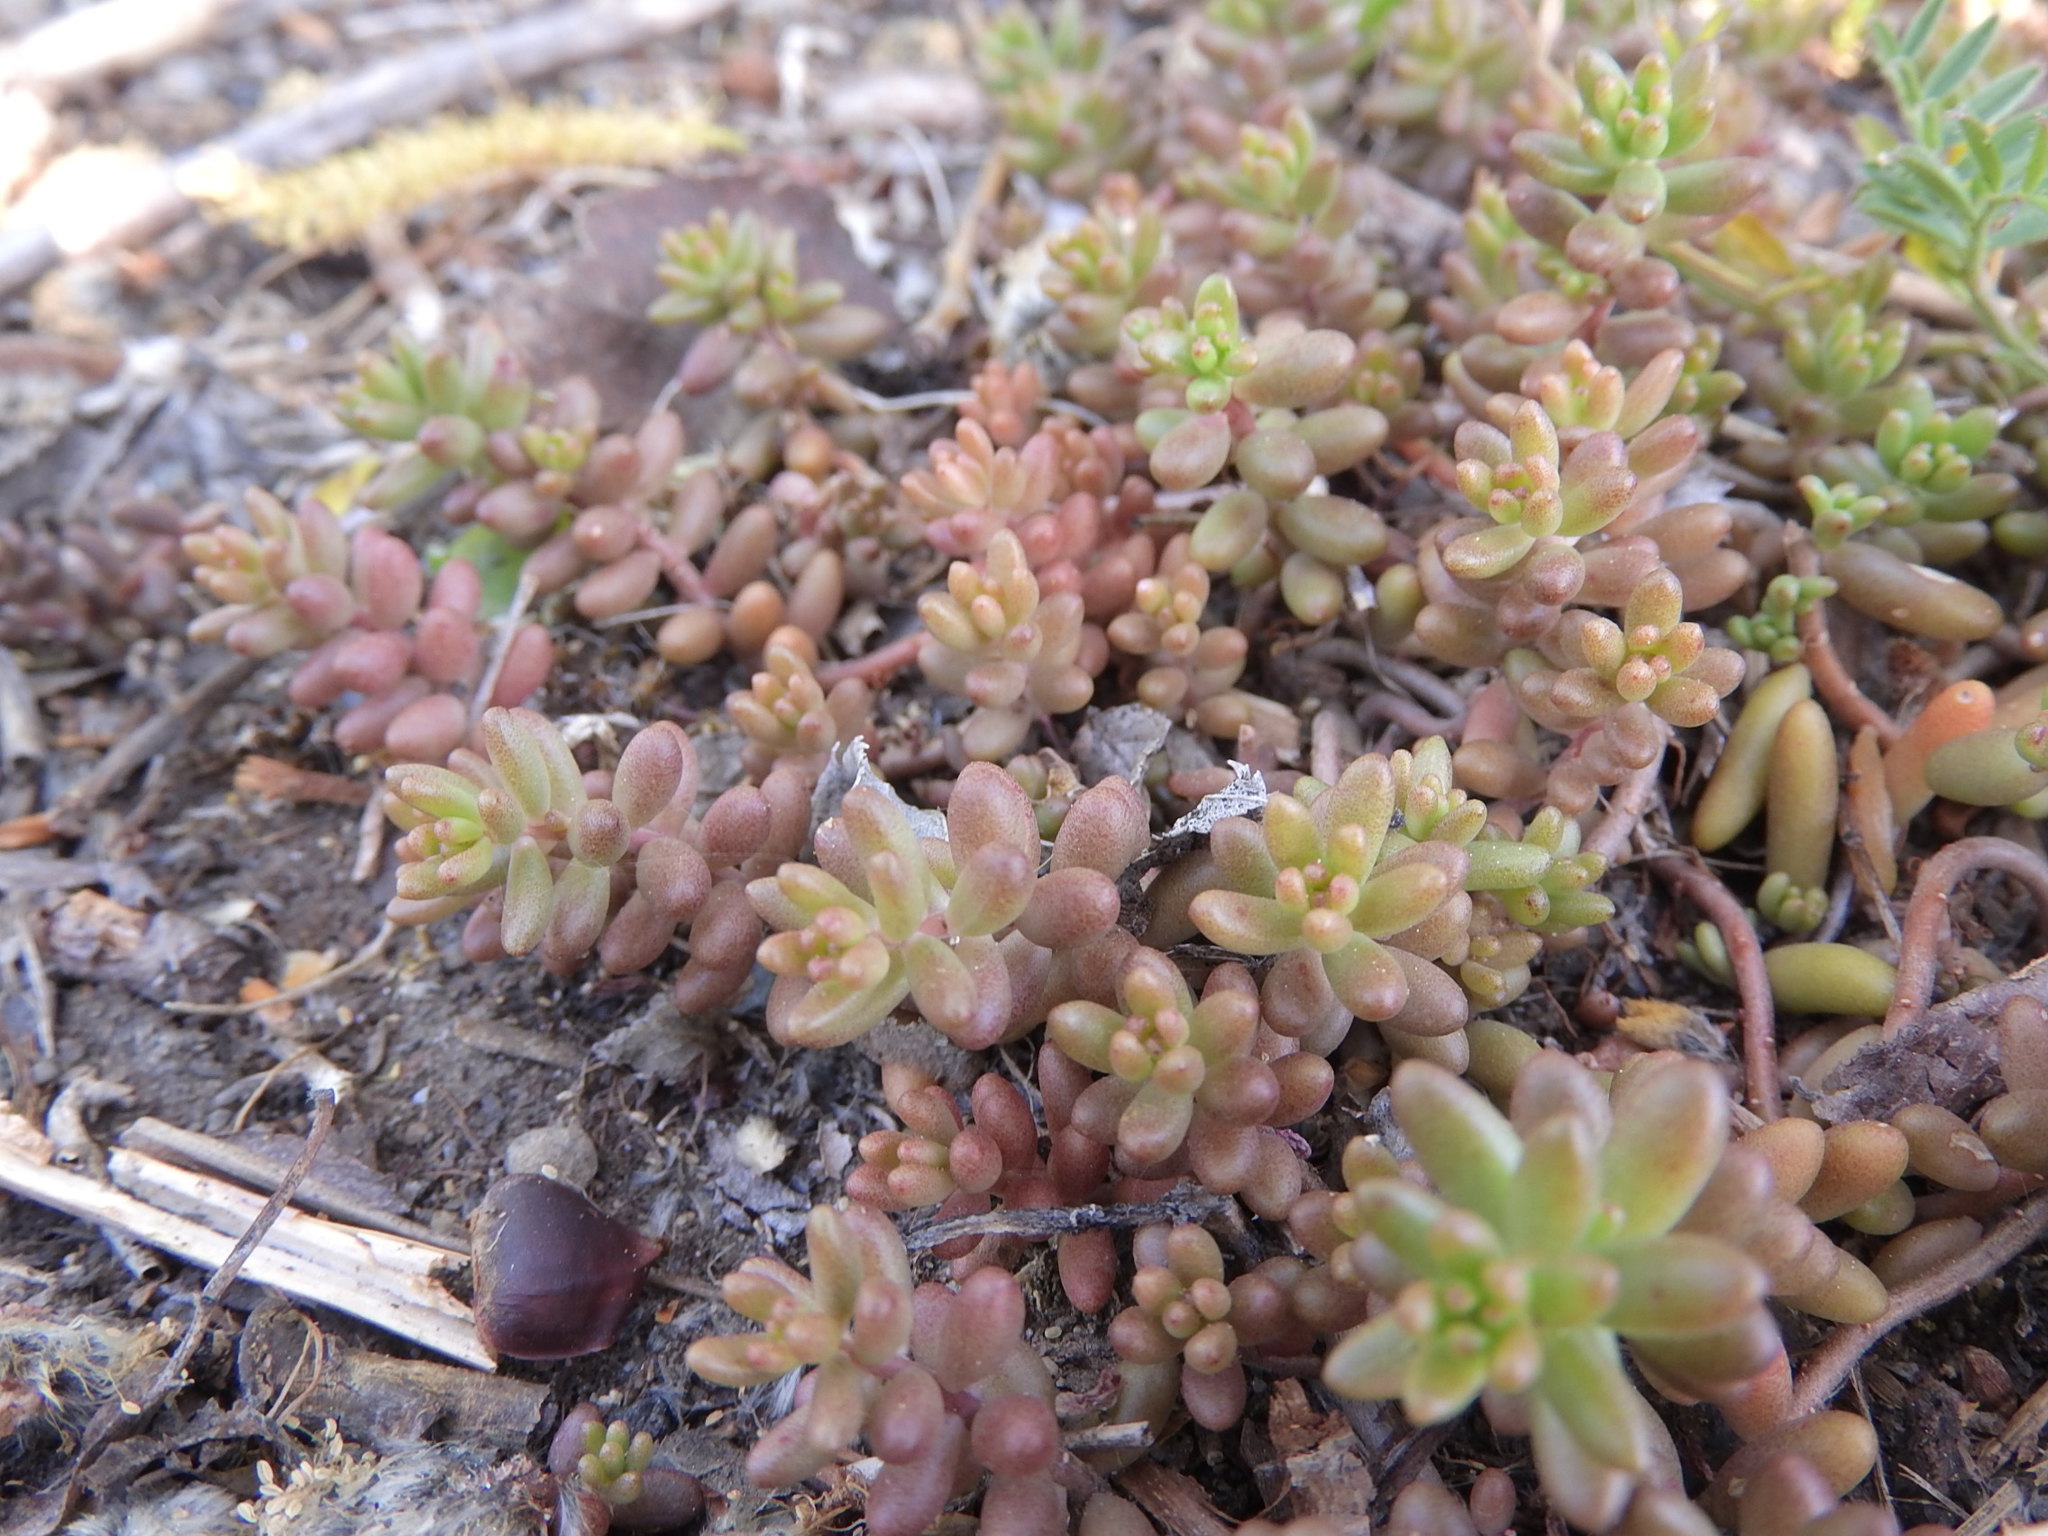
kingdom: Plantae
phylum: Tracheophyta
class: Magnoliopsida
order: Saxifragales
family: Crassulaceae
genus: Sedum
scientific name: Sedum album
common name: White stonecrop
